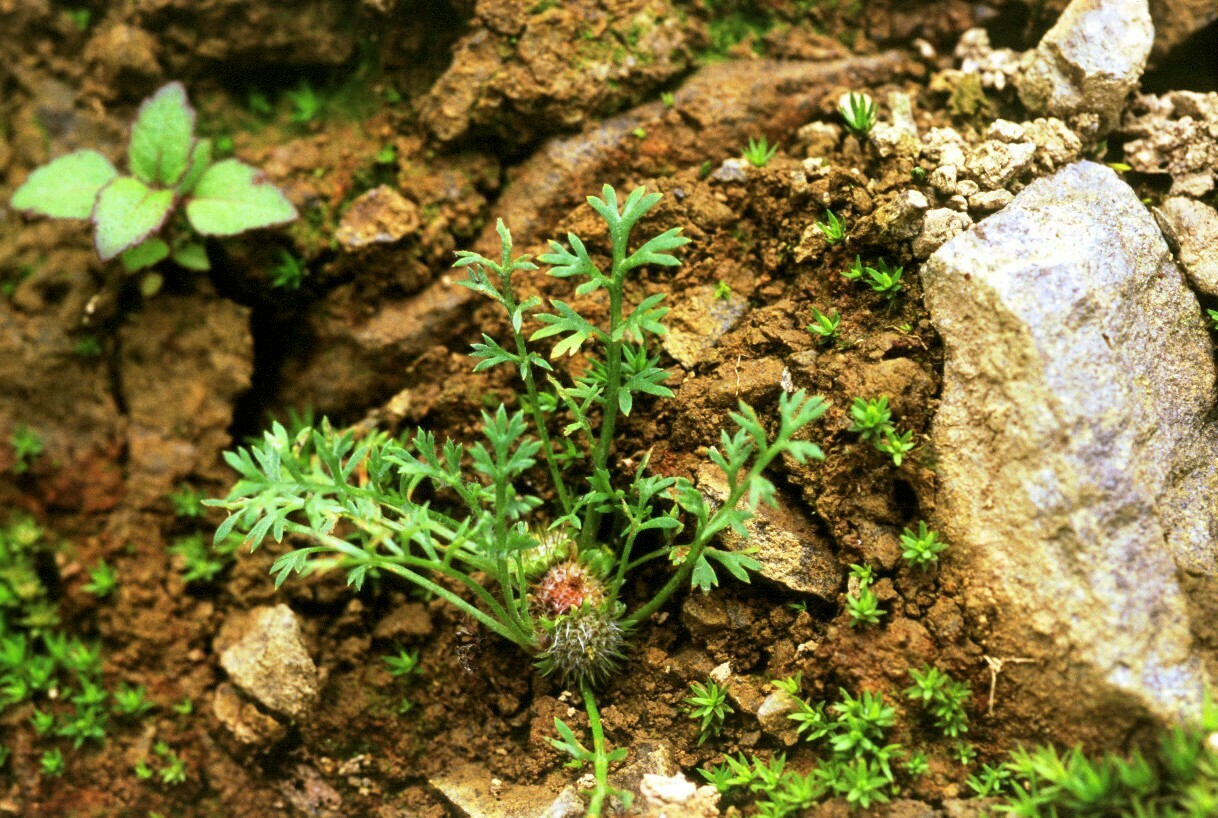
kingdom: Plantae
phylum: Tracheophyta
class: Magnoliopsida
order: Asterales
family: Asteraceae
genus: Soliva
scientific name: Soliva anthemifolia
